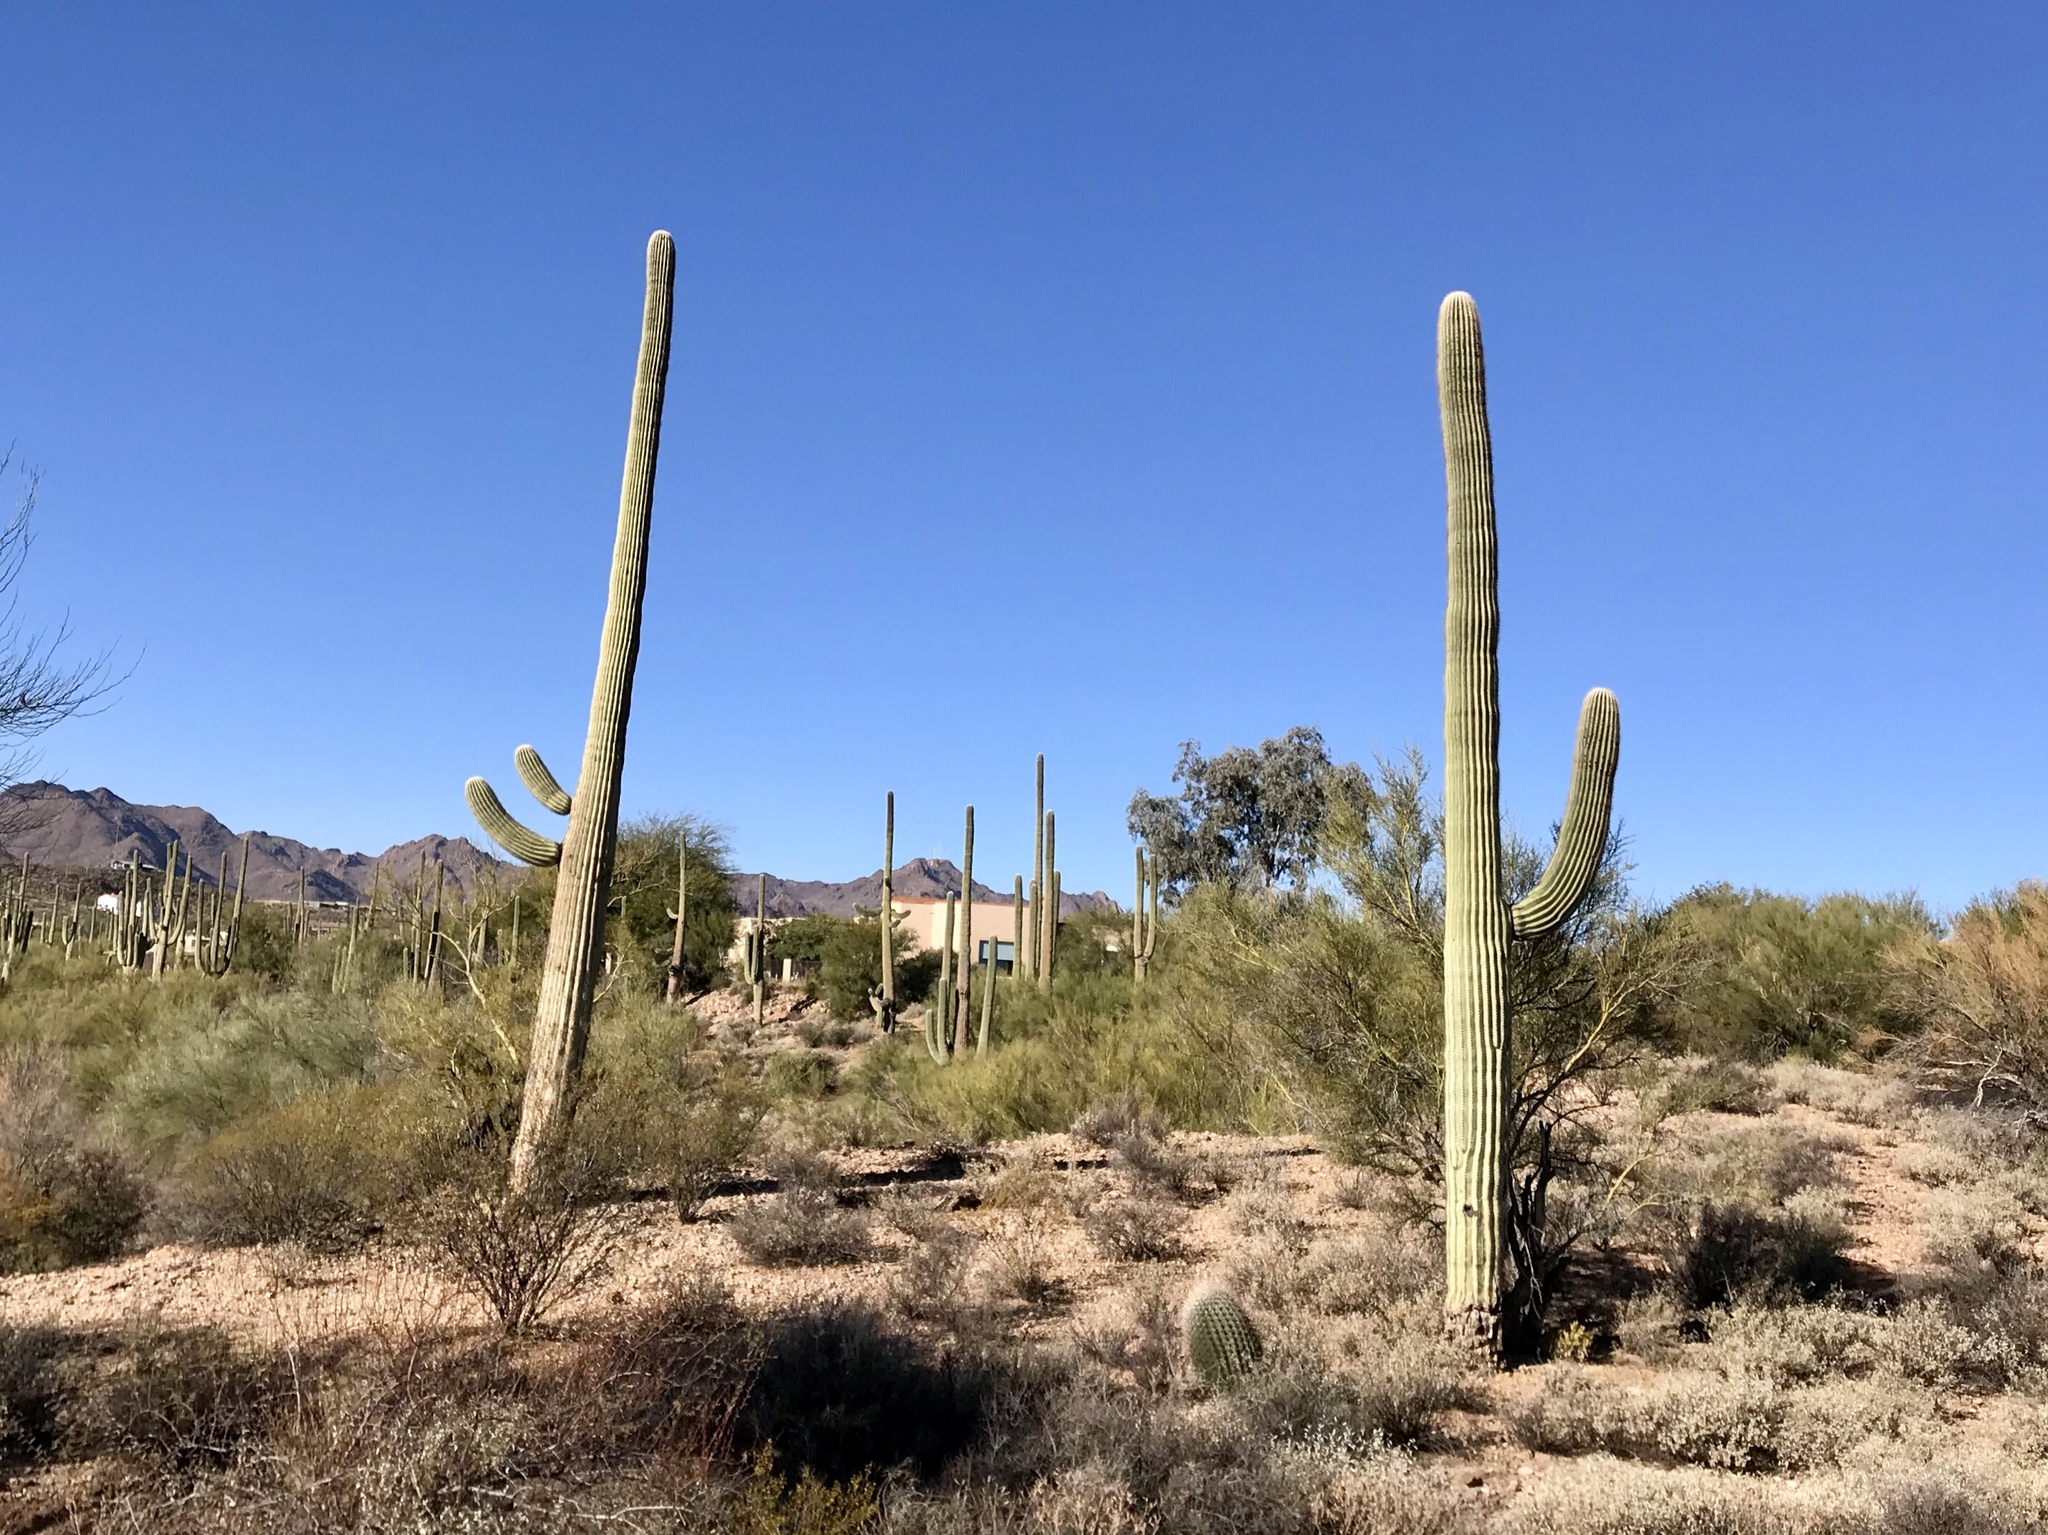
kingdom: Plantae
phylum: Tracheophyta
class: Magnoliopsida
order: Caryophyllales
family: Cactaceae
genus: Carnegiea
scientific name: Carnegiea gigantea
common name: Saguaro
